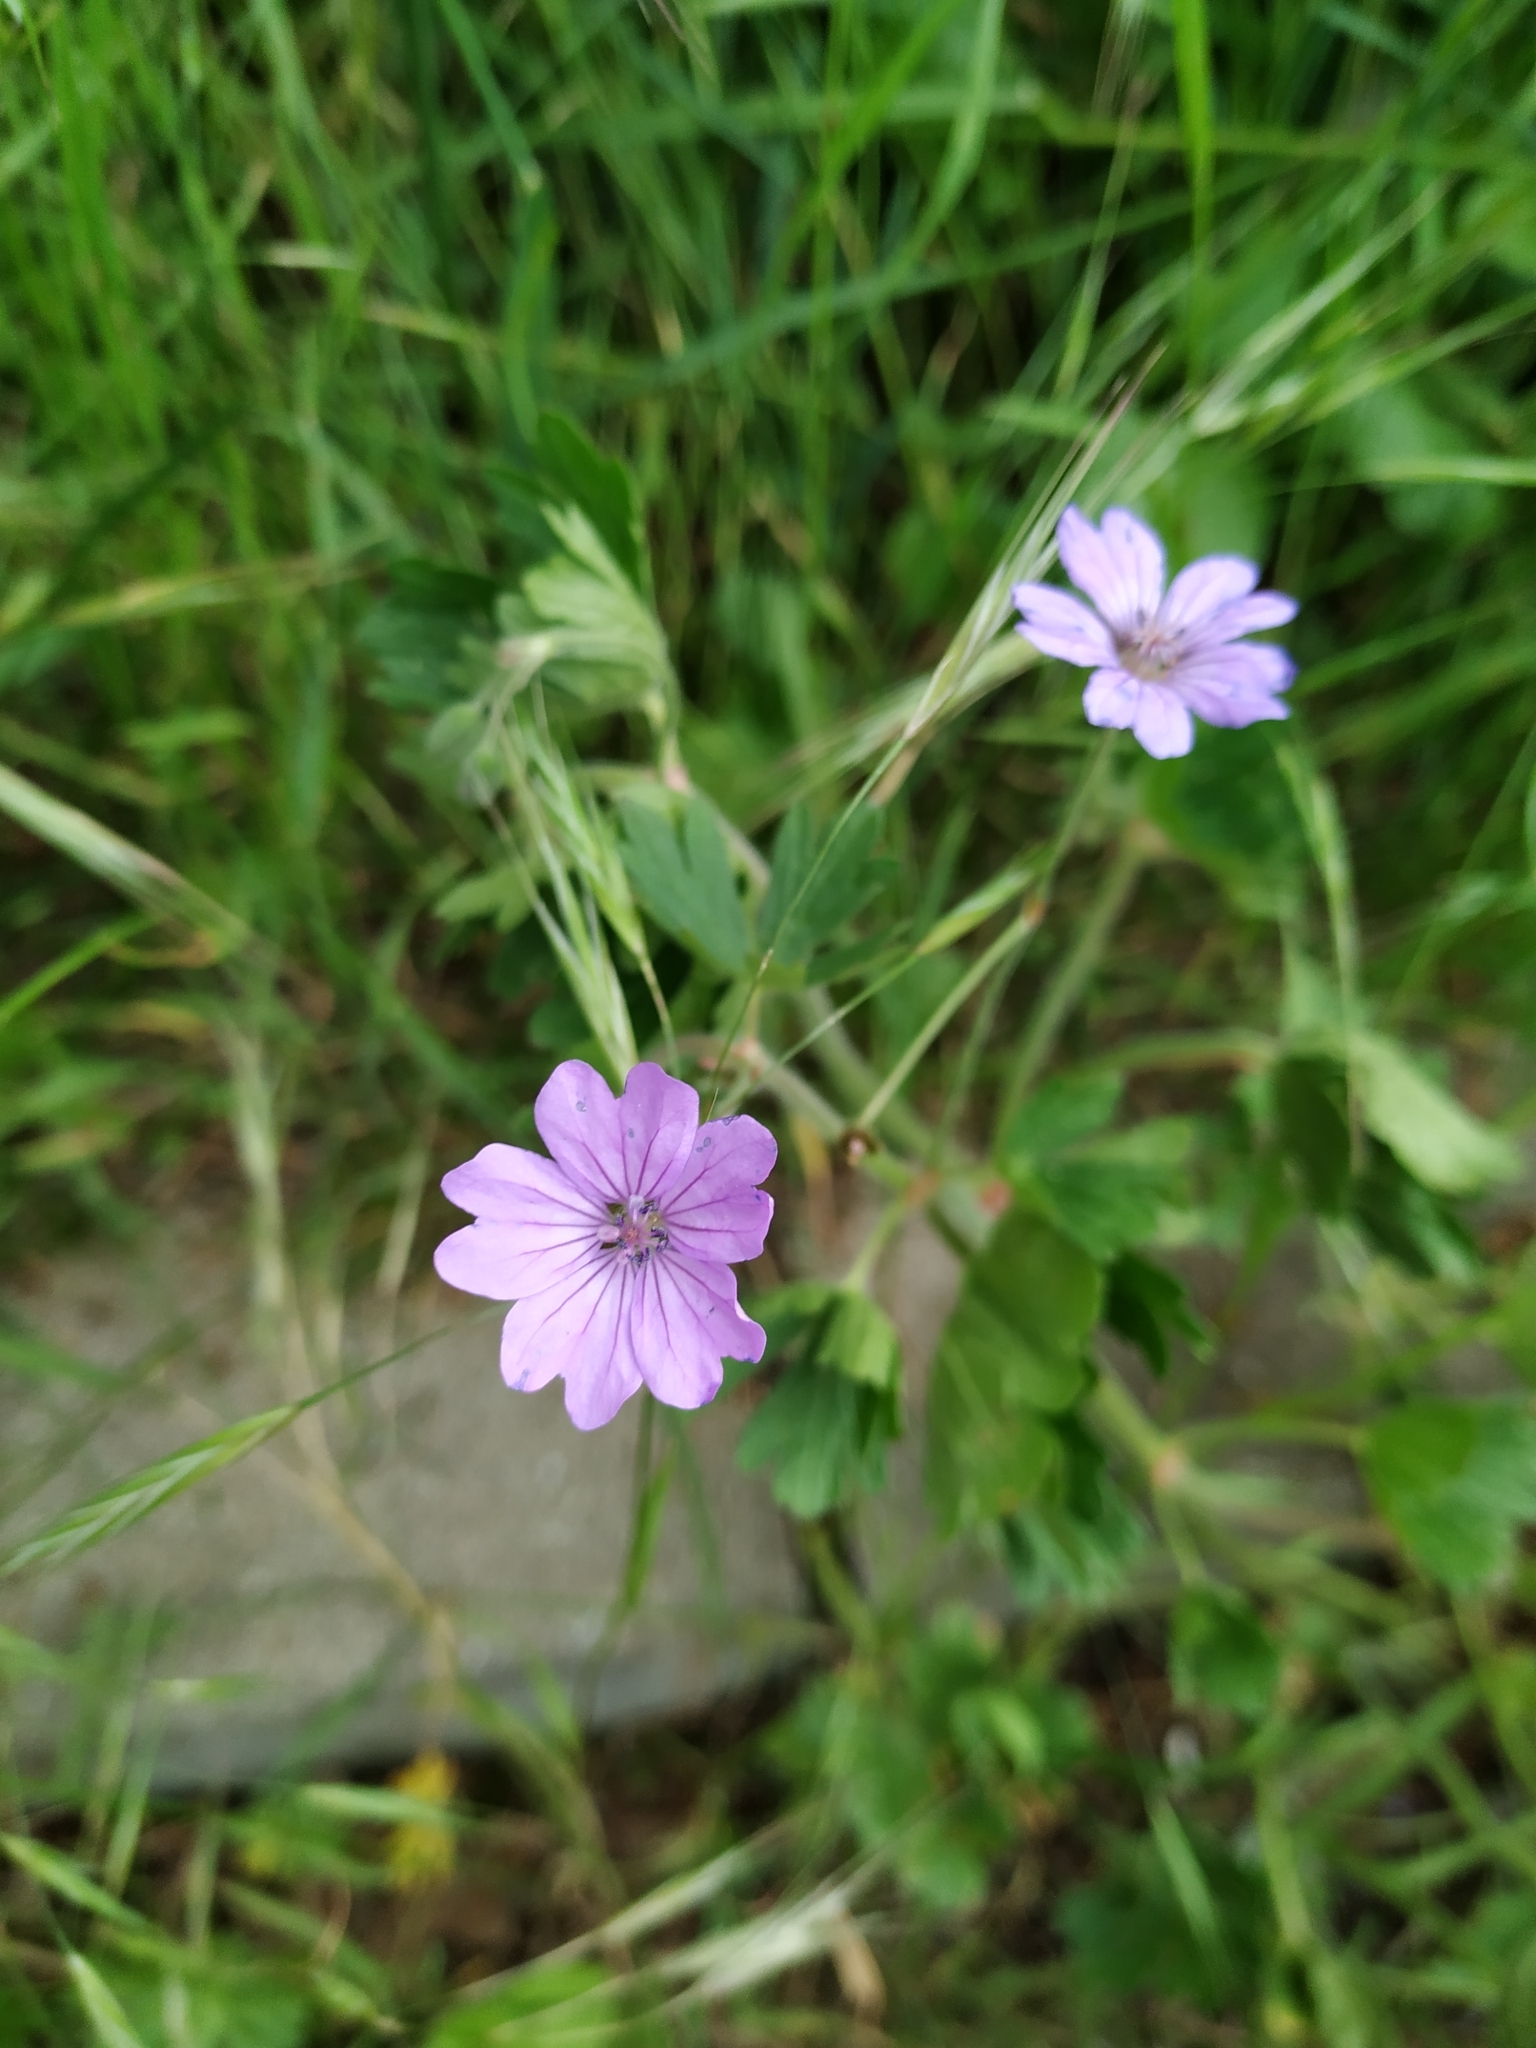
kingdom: Plantae
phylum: Tracheophyta
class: Magnoliopsida
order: Geraniales
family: Geraniaceae
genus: Geranium
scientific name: Geranium pyrenaicum
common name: Hedgerow crane's-bill
